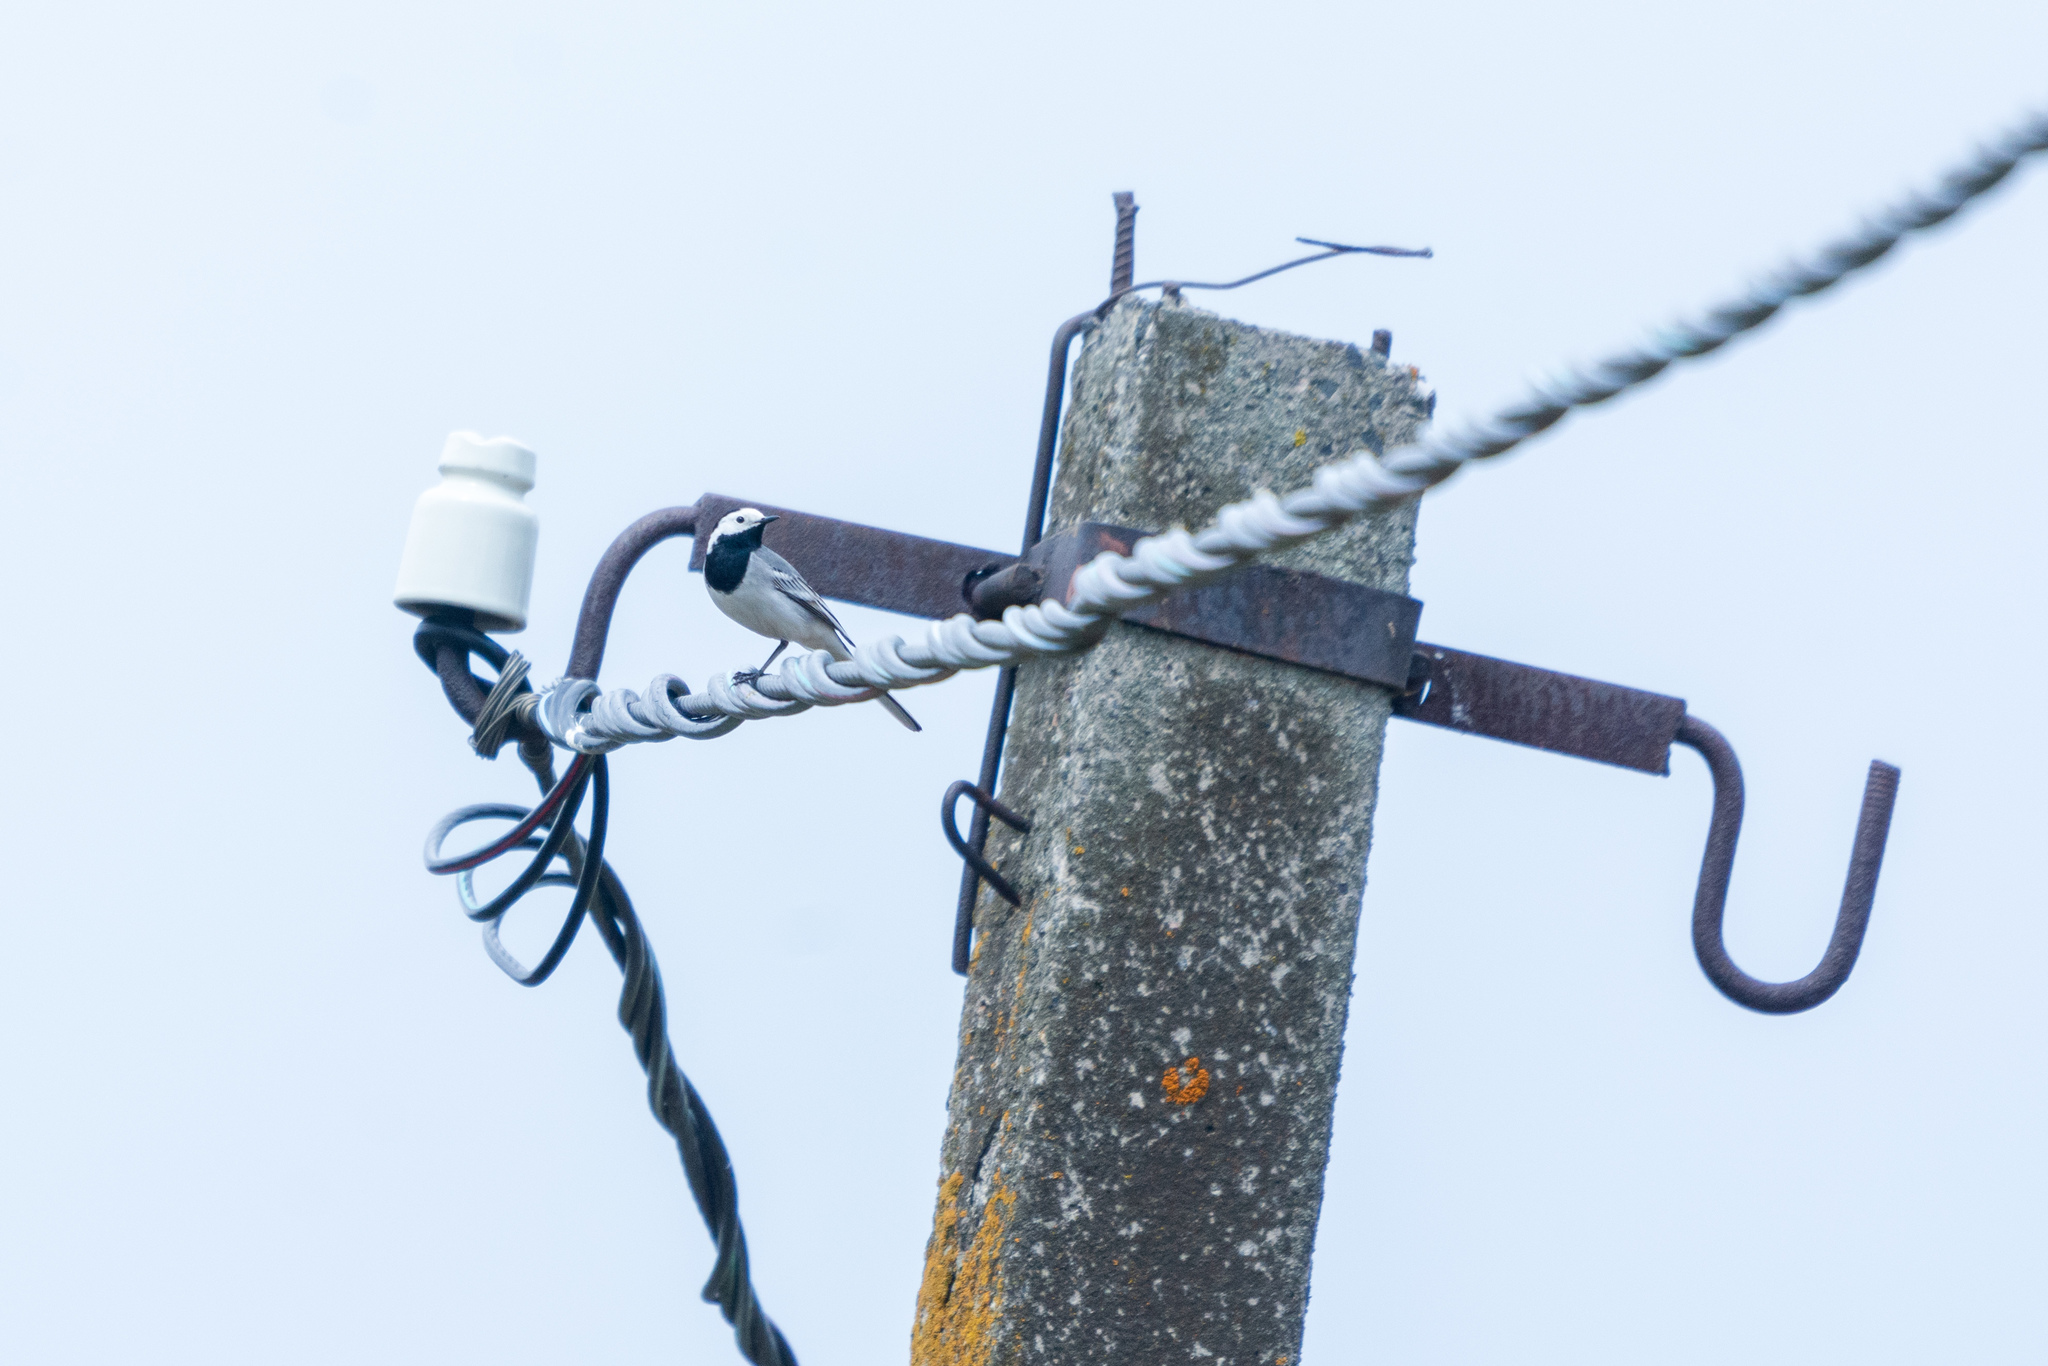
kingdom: Animalia
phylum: Chordata
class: Aves
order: Passeriformes
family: Motacillidae
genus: Motacilla
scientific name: Motacilla alba
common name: White wagtail
